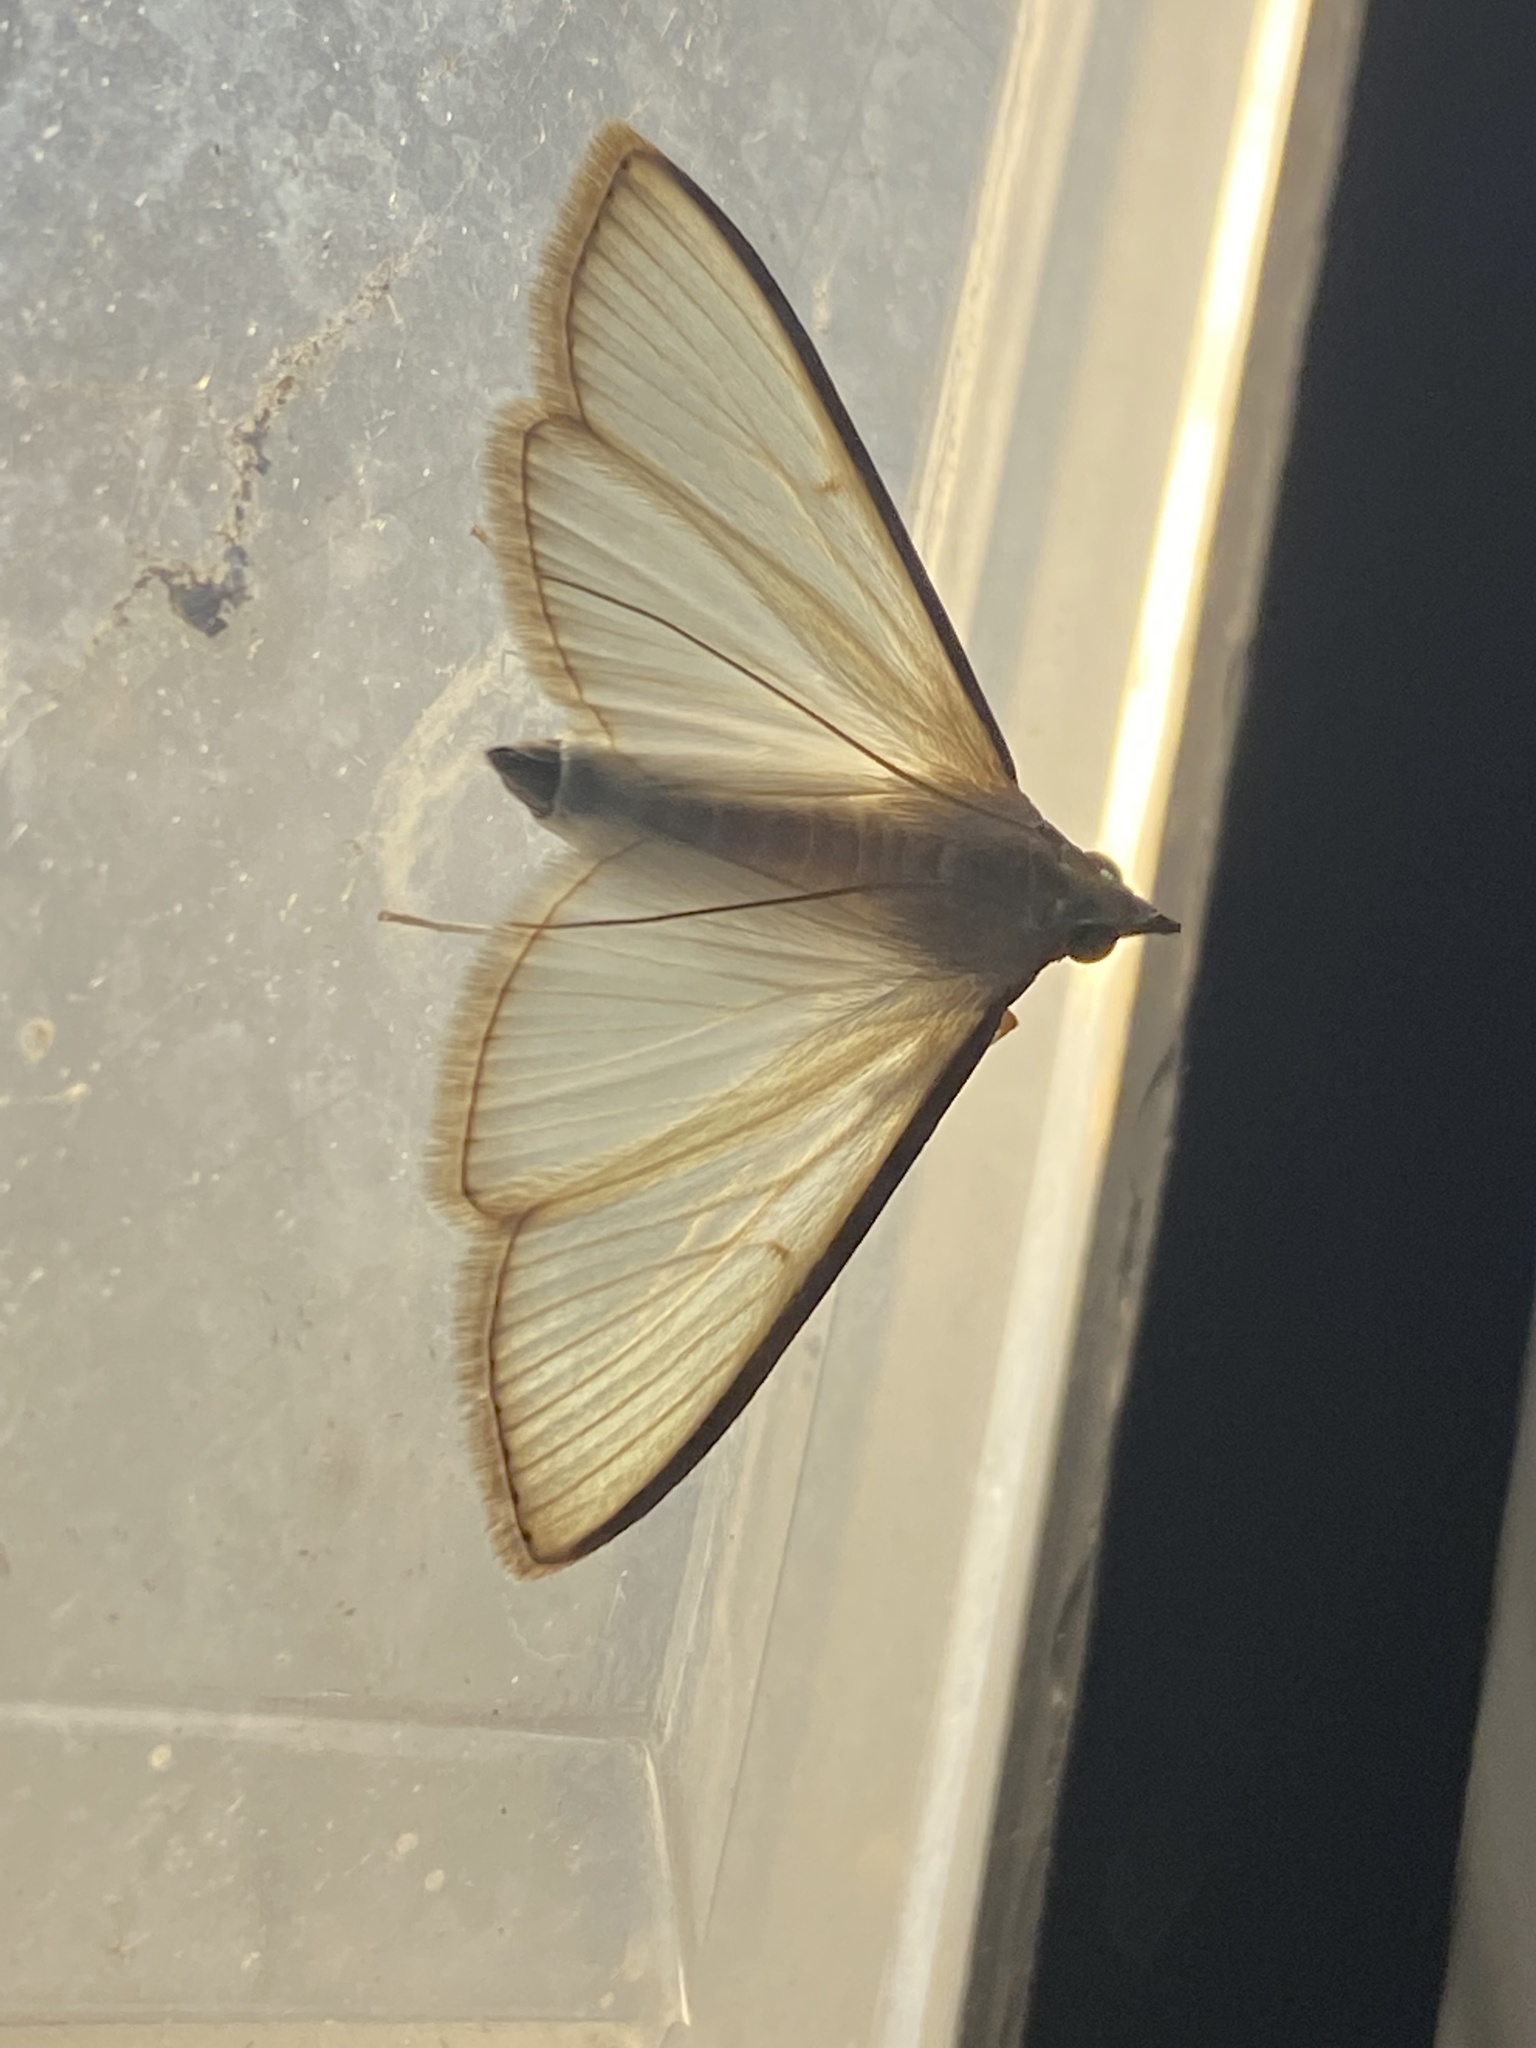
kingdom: Animalia
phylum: Arthropoda
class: Insecta
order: Lepidoptera
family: Crambidae
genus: Diaphania
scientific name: Diaphania costata
